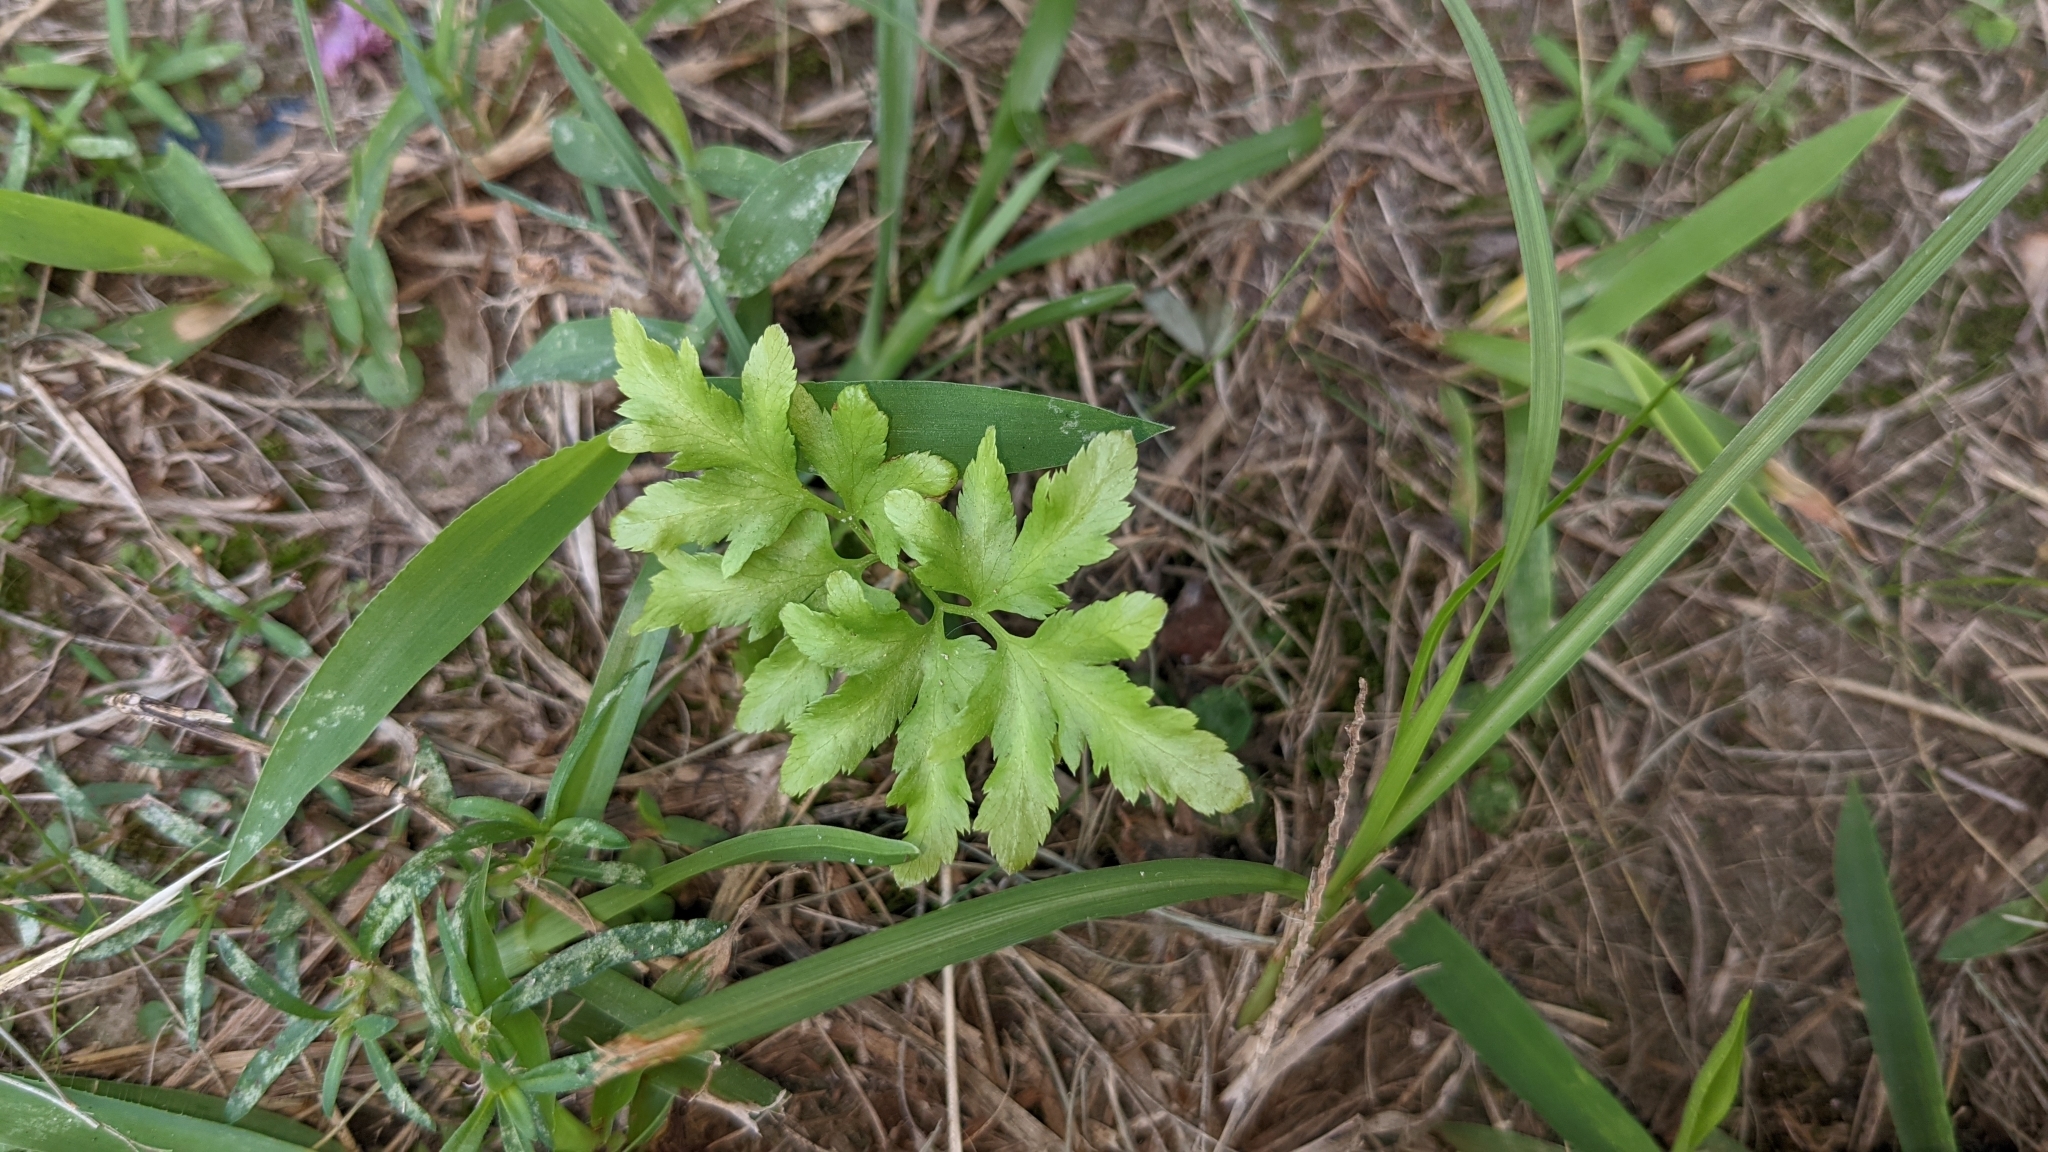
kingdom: Plantae
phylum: Tracheophyta
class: Polypodiopsida
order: Schizaeales
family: Lygodiaceae
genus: Lygodium
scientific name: Lygodium japonicum
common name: Japanese climbing fern
